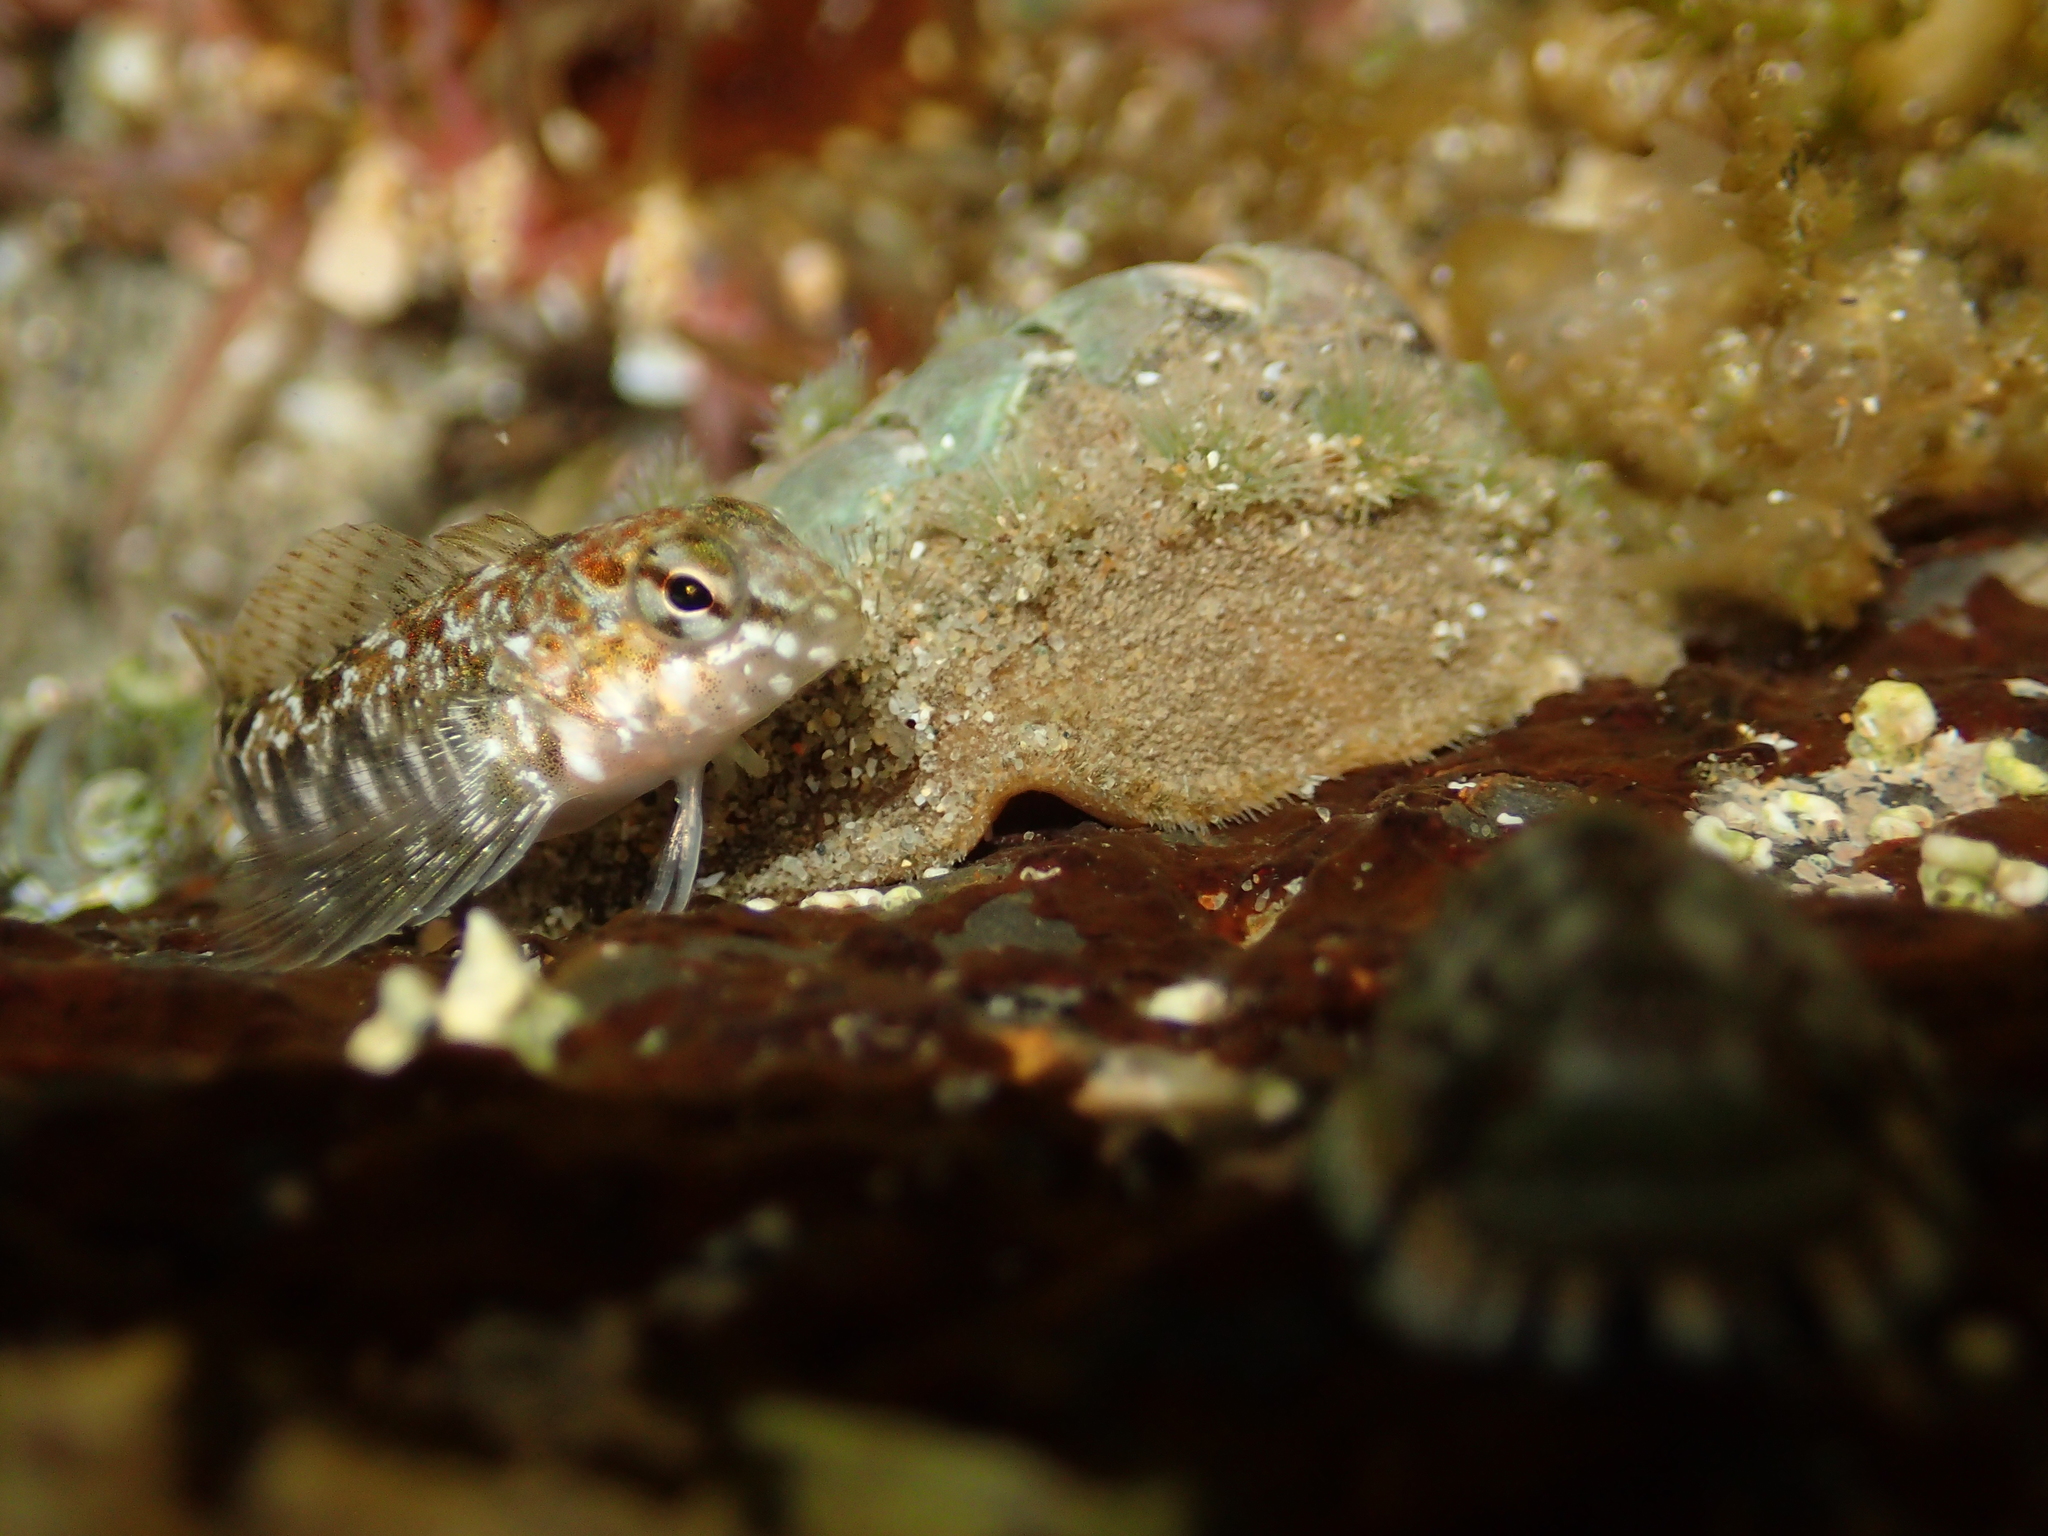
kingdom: Animalia
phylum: Chordata
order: Perciformes
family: Tripterygiidae
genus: Bellapiscis
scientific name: Bellapiscis medius
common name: Twister
